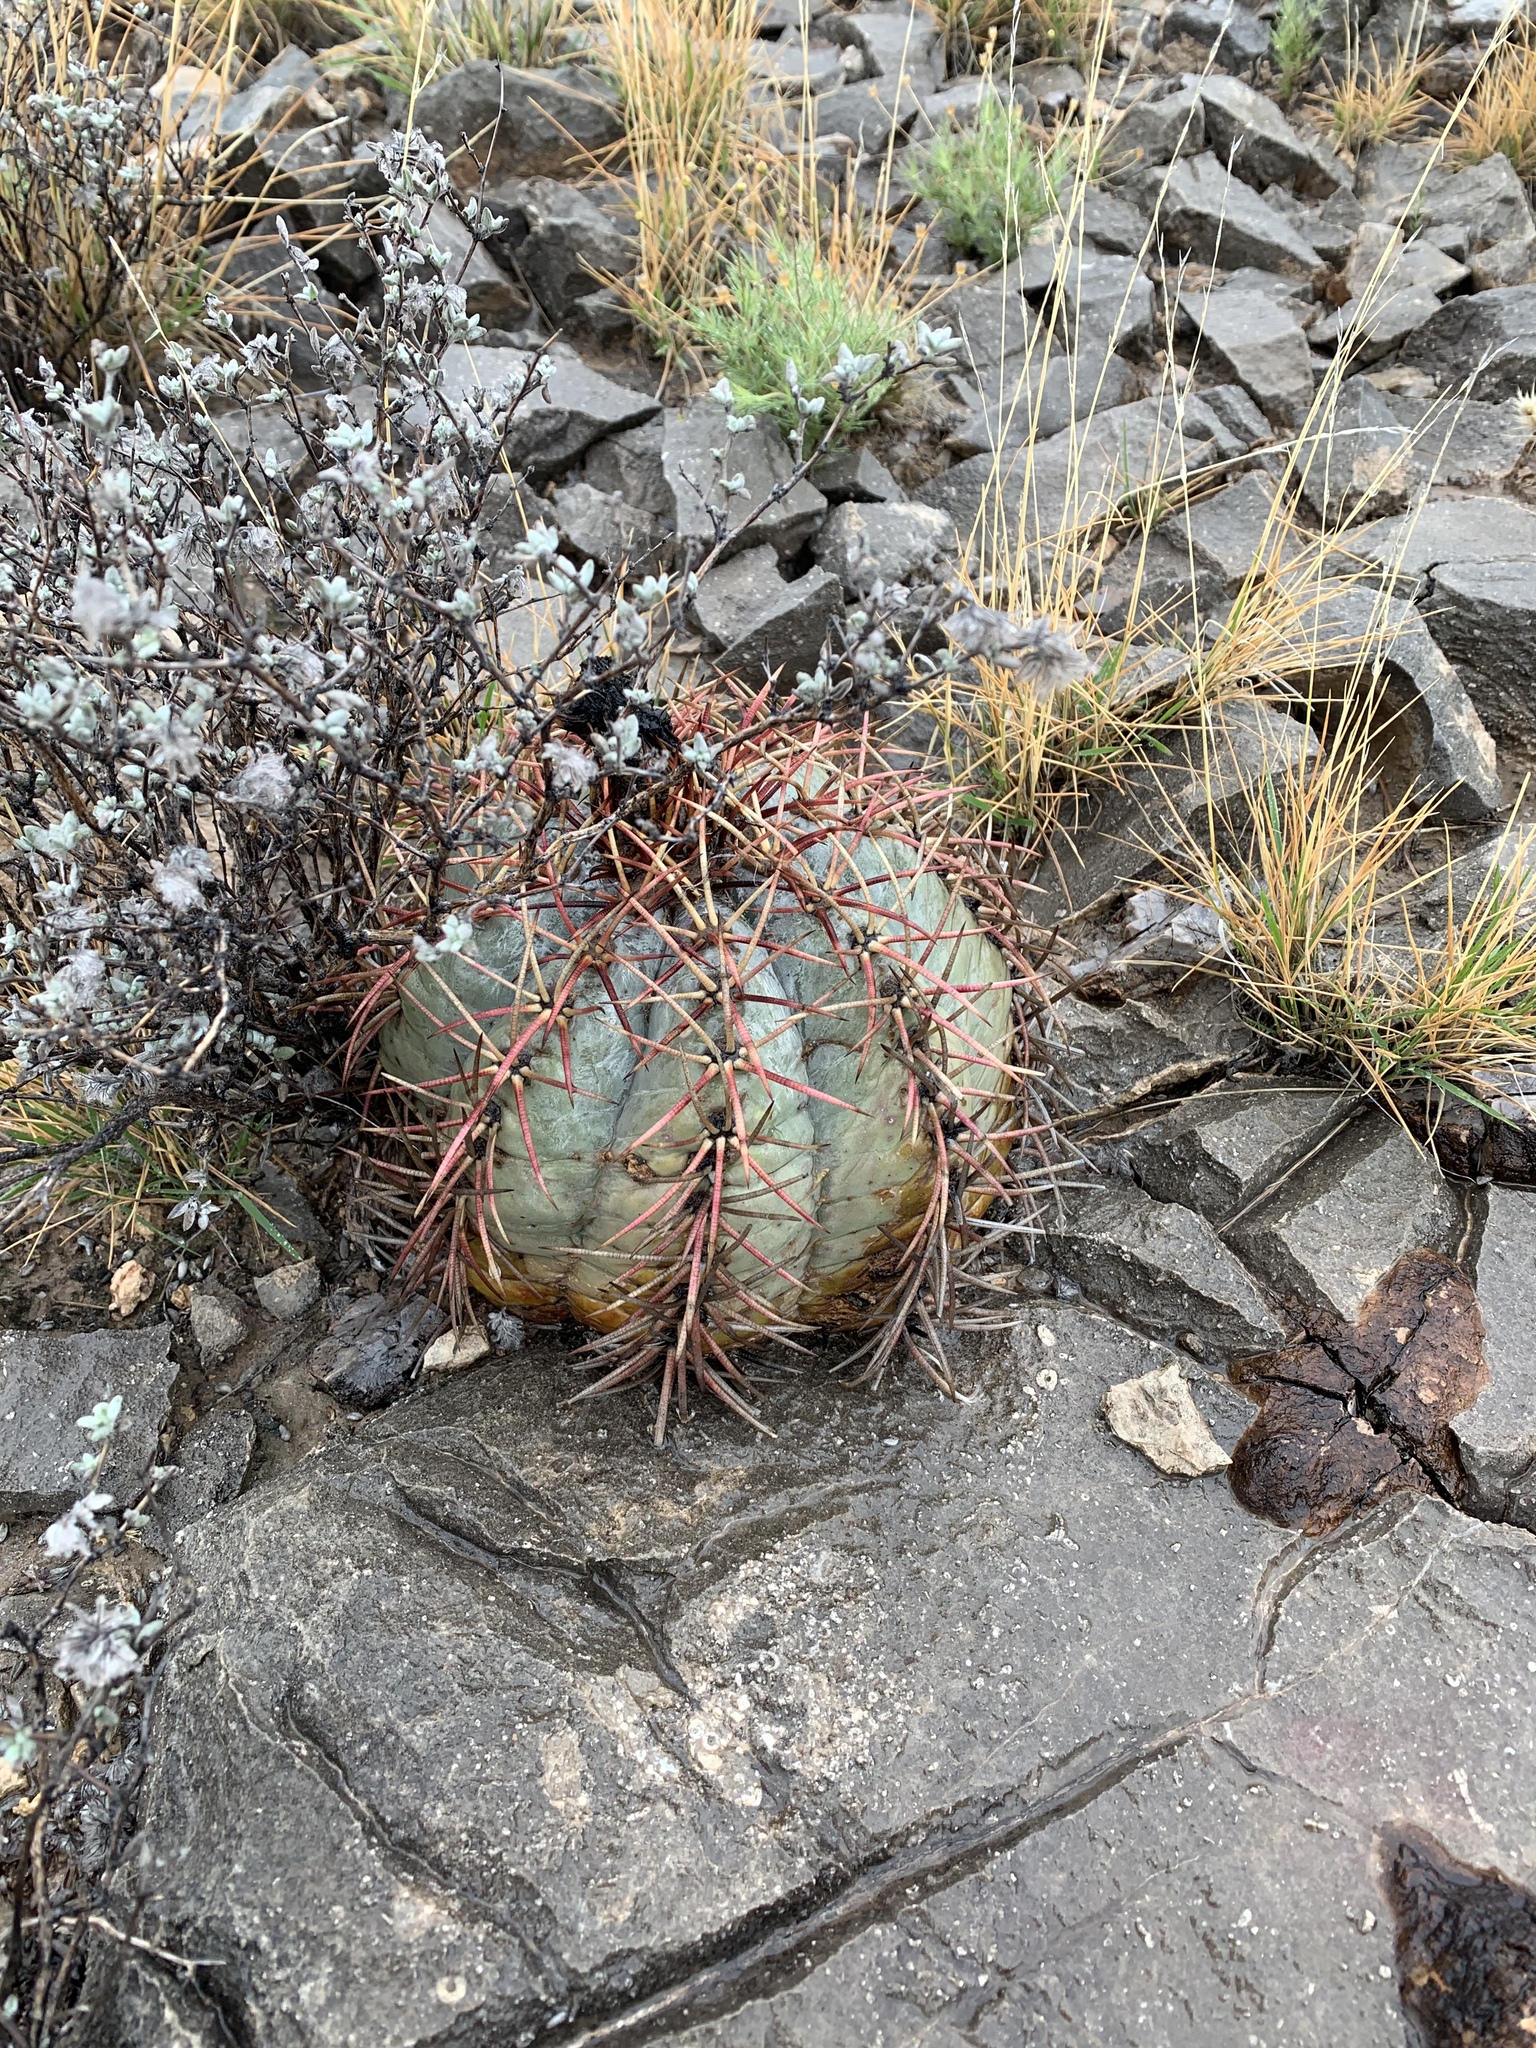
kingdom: Plantae
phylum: Tracheophyta
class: Magnoliopsida
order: Caryophyllales
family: Cactaceae
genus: Echinocactus
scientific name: Echinocactus horizonthalonius
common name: Devilshead
